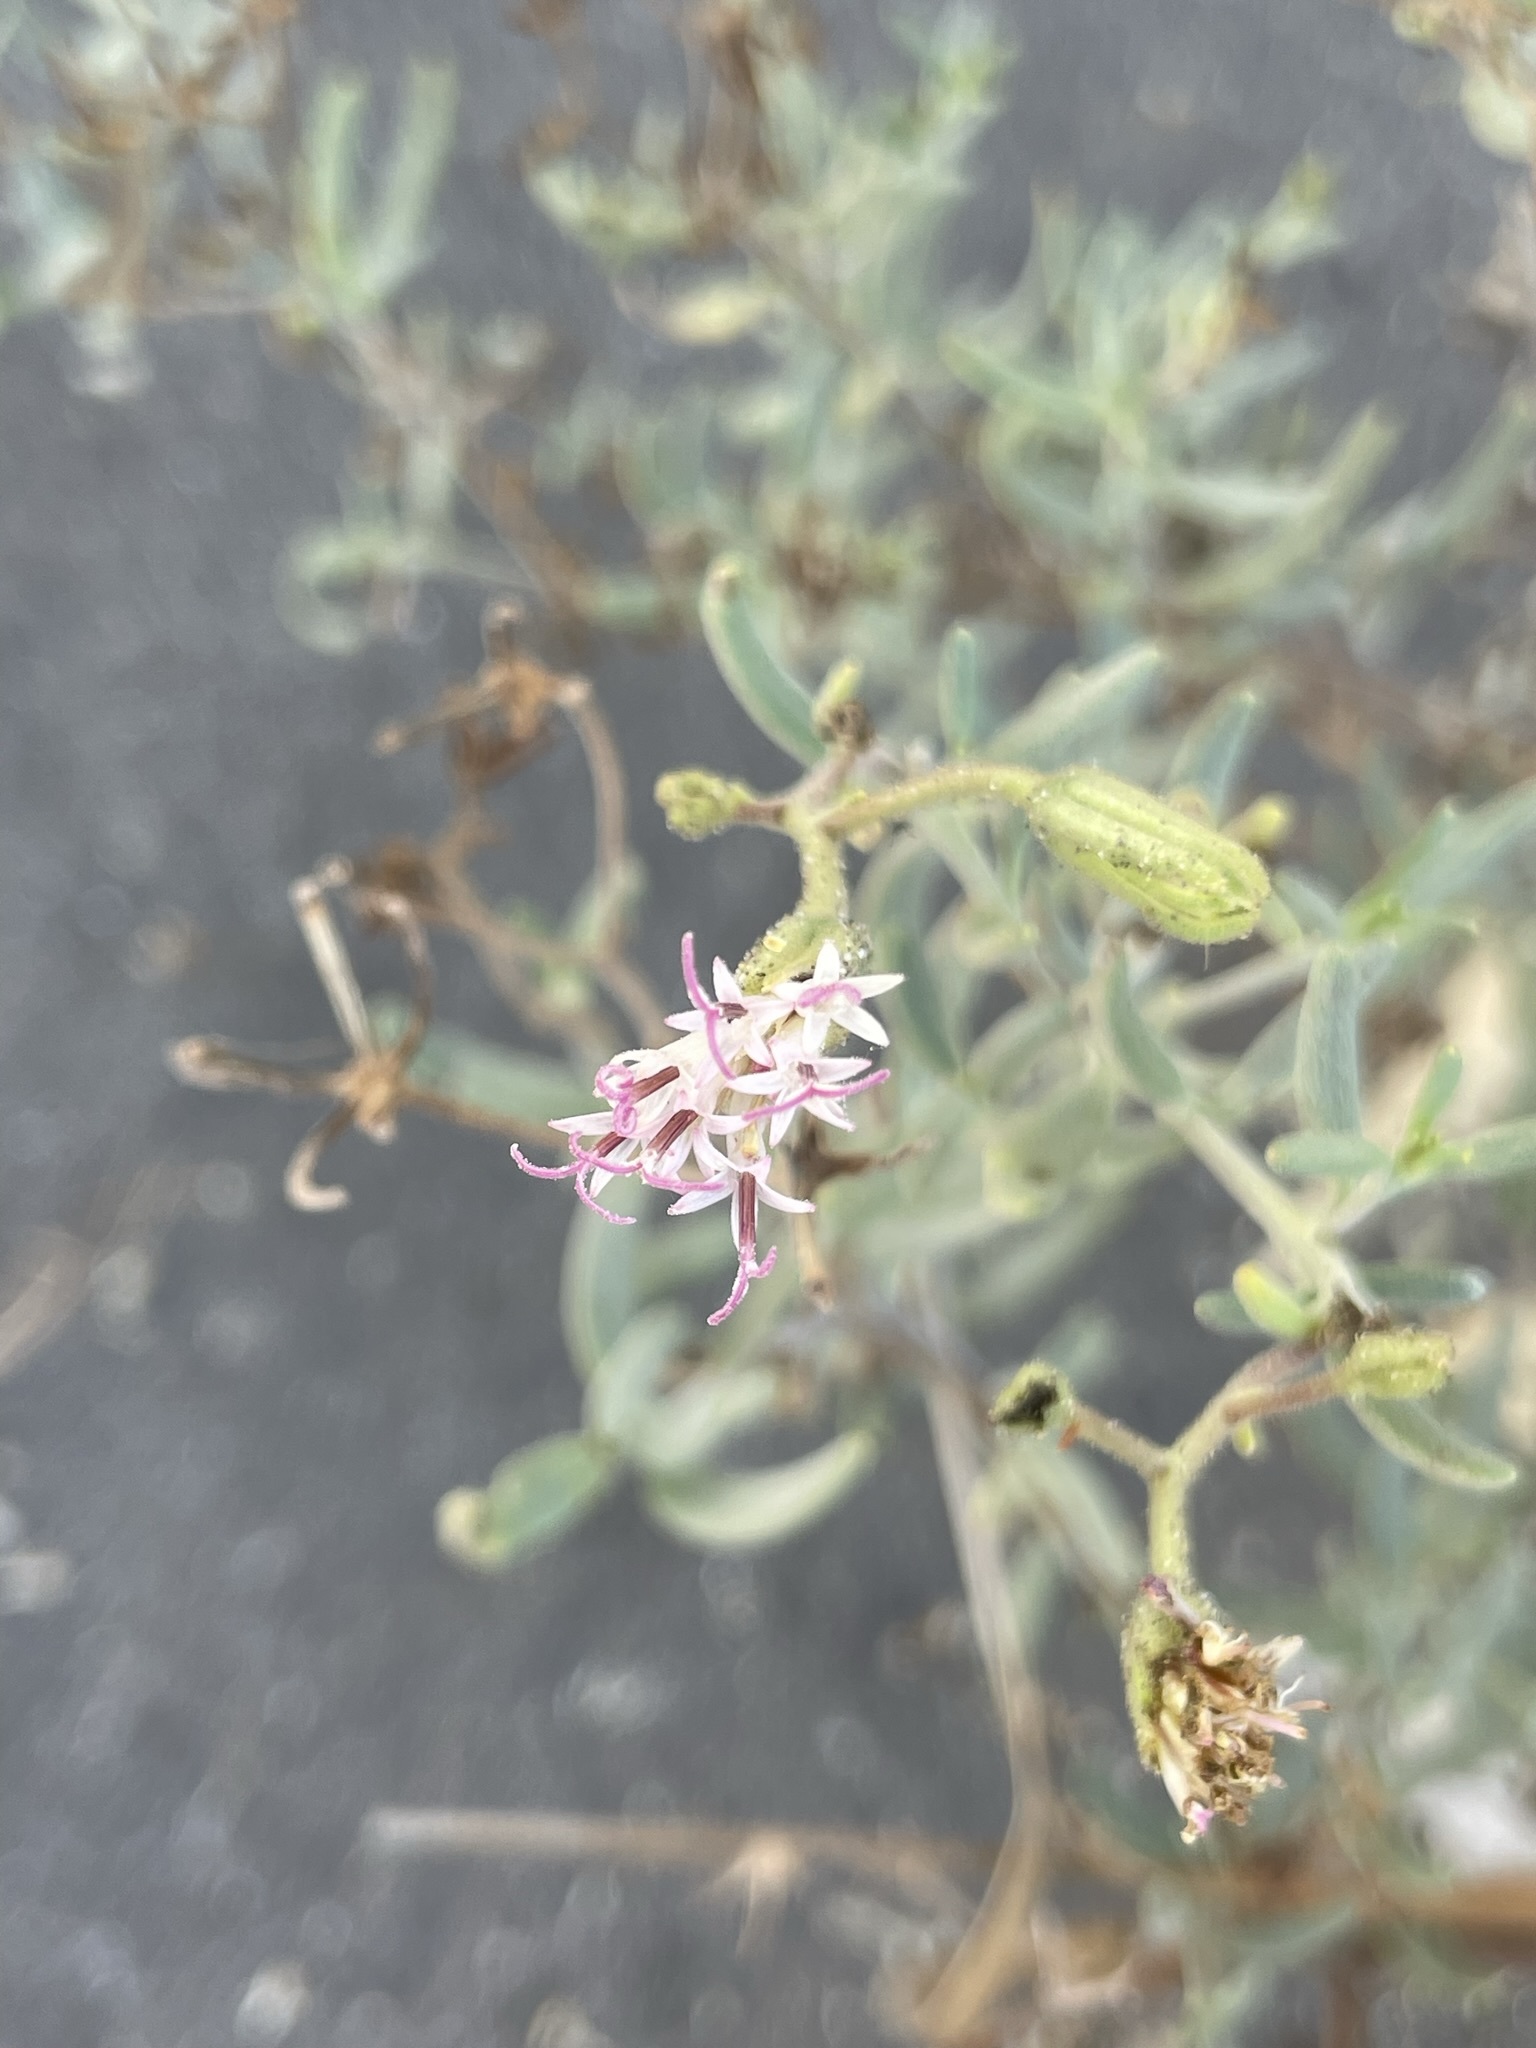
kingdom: Plantae
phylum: Tracheophyta
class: Magnoliopsida
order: Asterales
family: Asteraceae
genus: Palafoxia
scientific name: Palafoxia linearis
